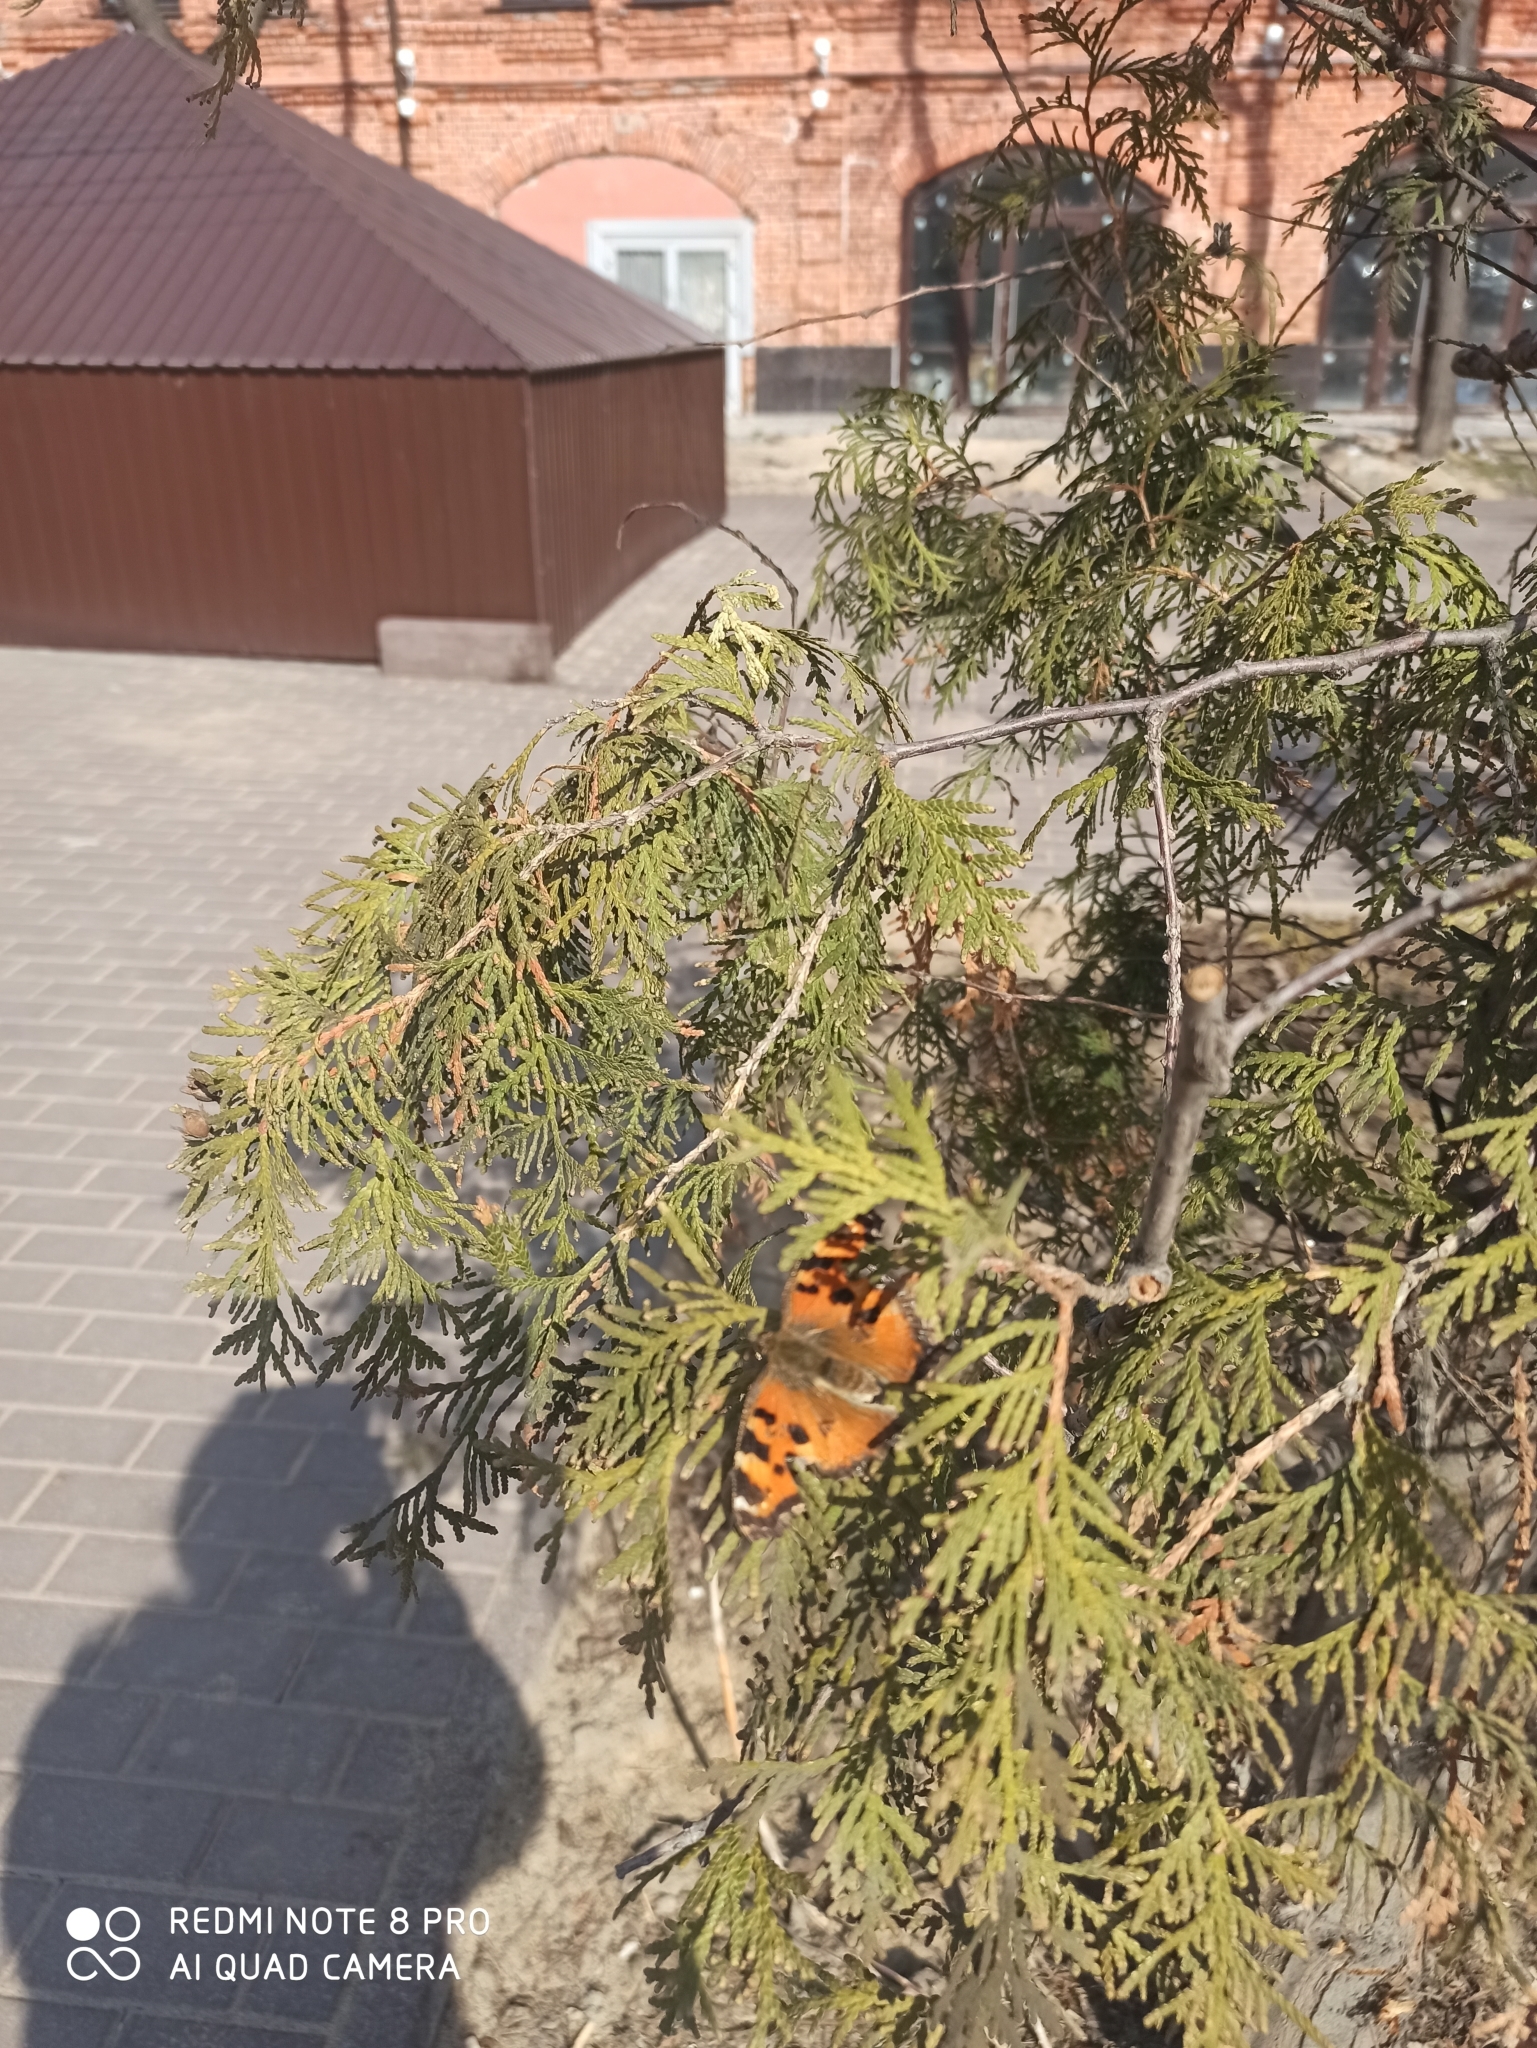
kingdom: Animalia
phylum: Arthropoda
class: Insecta
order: Lepidoptera
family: Nymphalidae
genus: Nymphalis
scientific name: Nymphalis xanthomelas
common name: Scarce tortoiseshell
